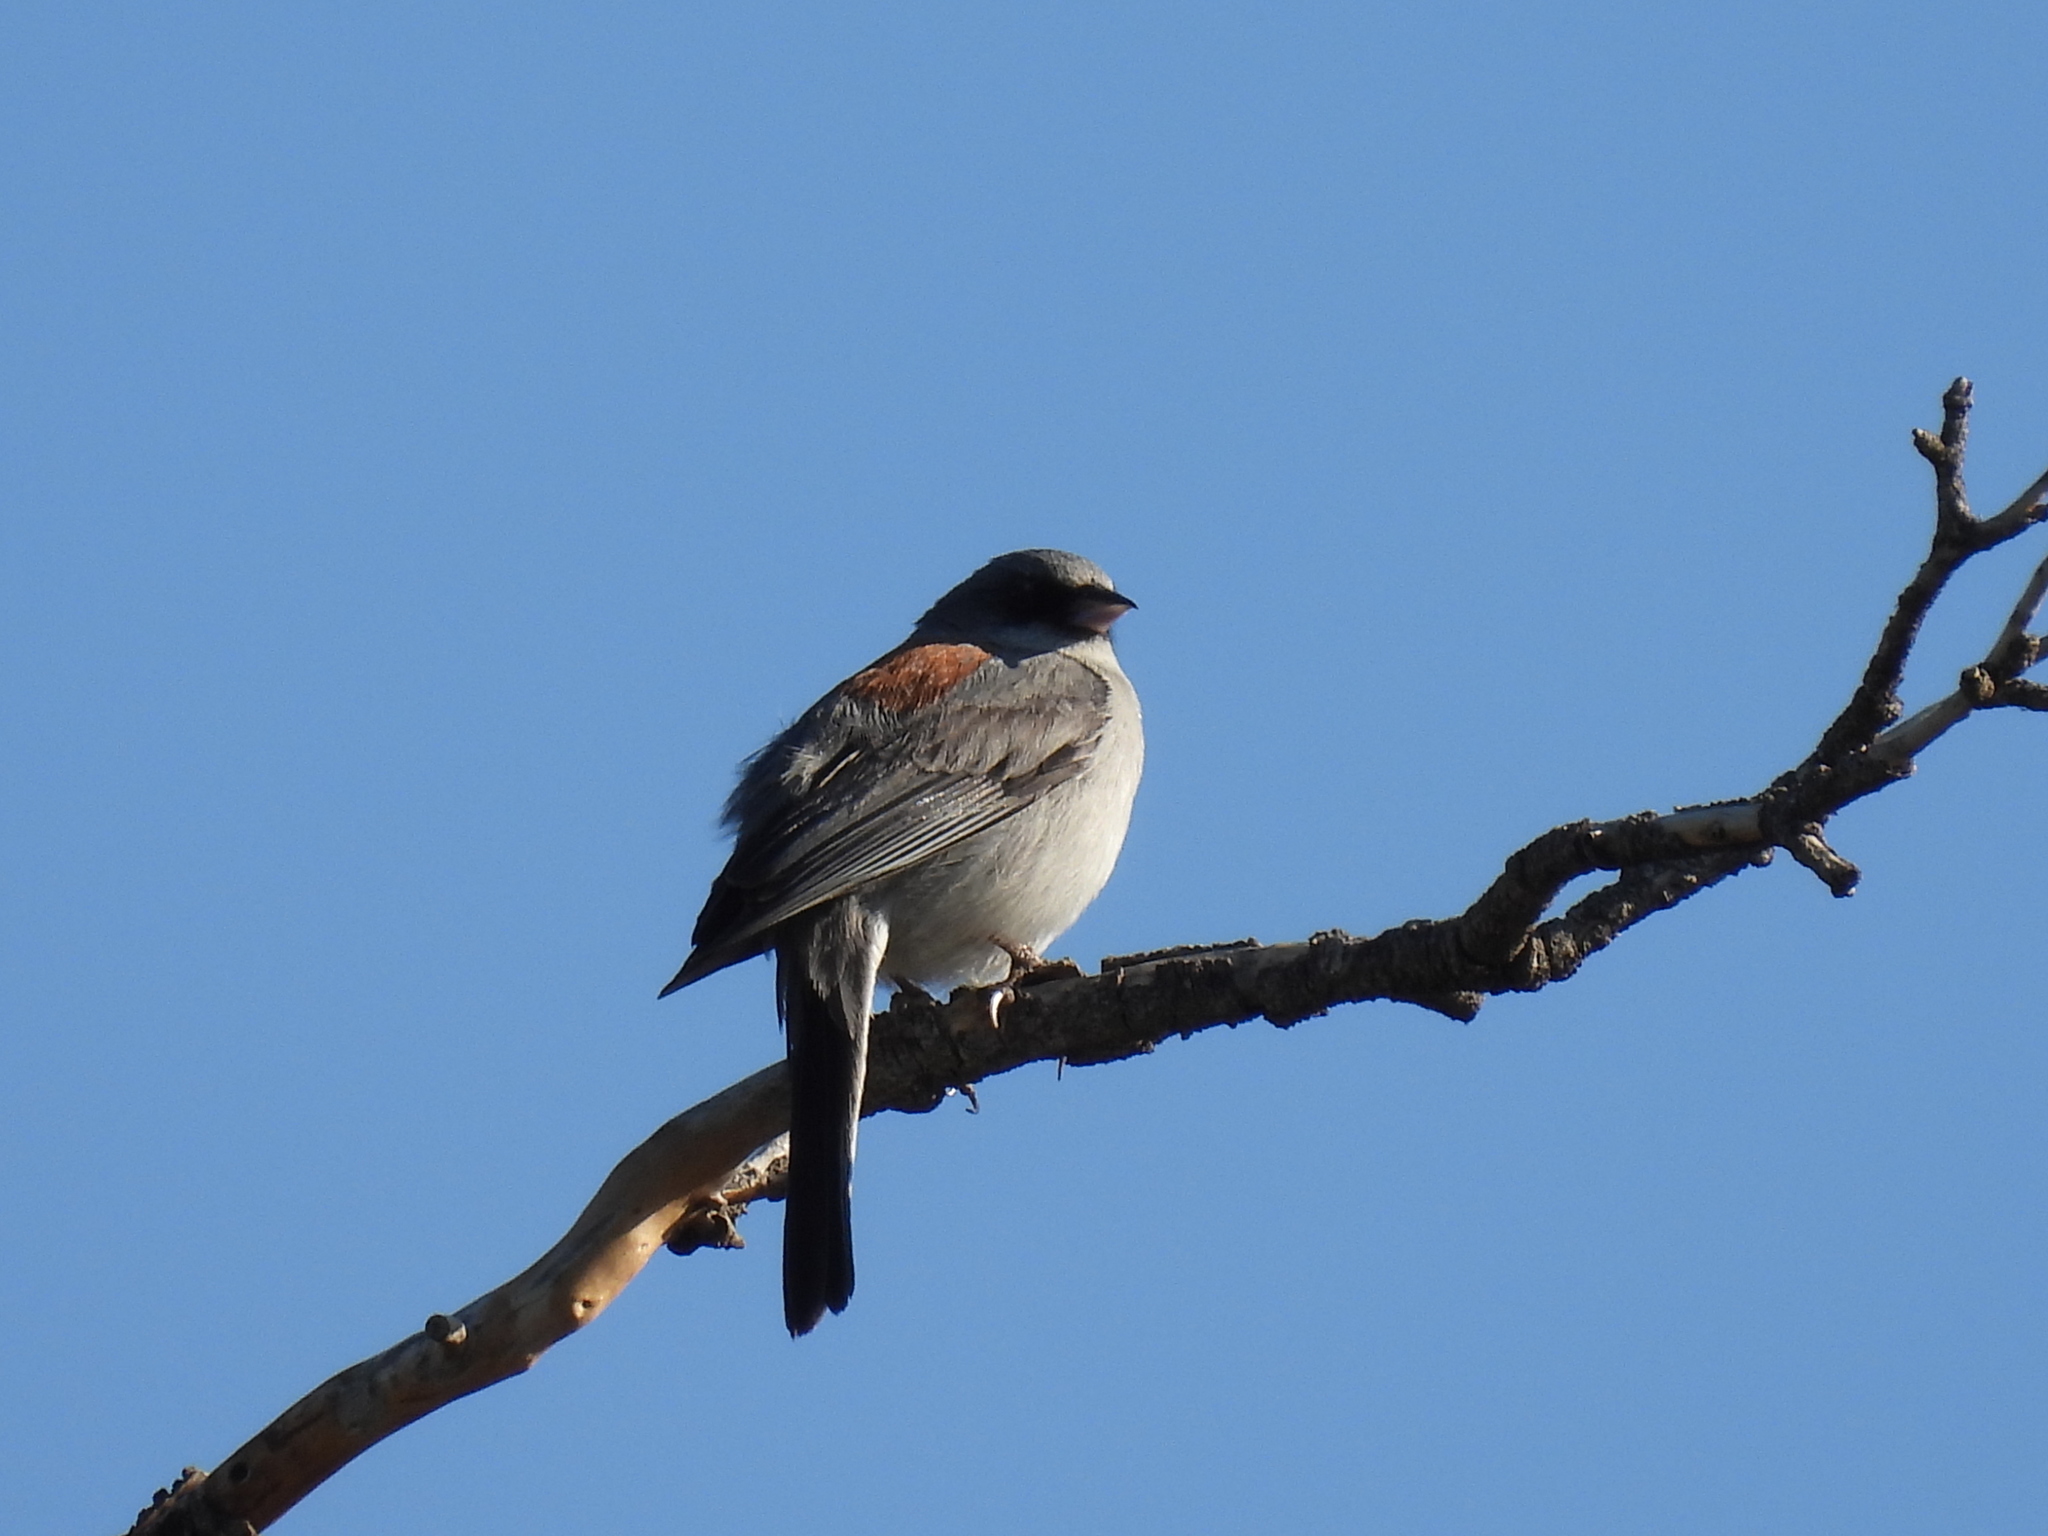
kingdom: Animalia
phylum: Chordata
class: Aves
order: Passeriformes
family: Passerellidae
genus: Junco
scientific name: Junco hyemalis
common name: Dark-eyed junco
